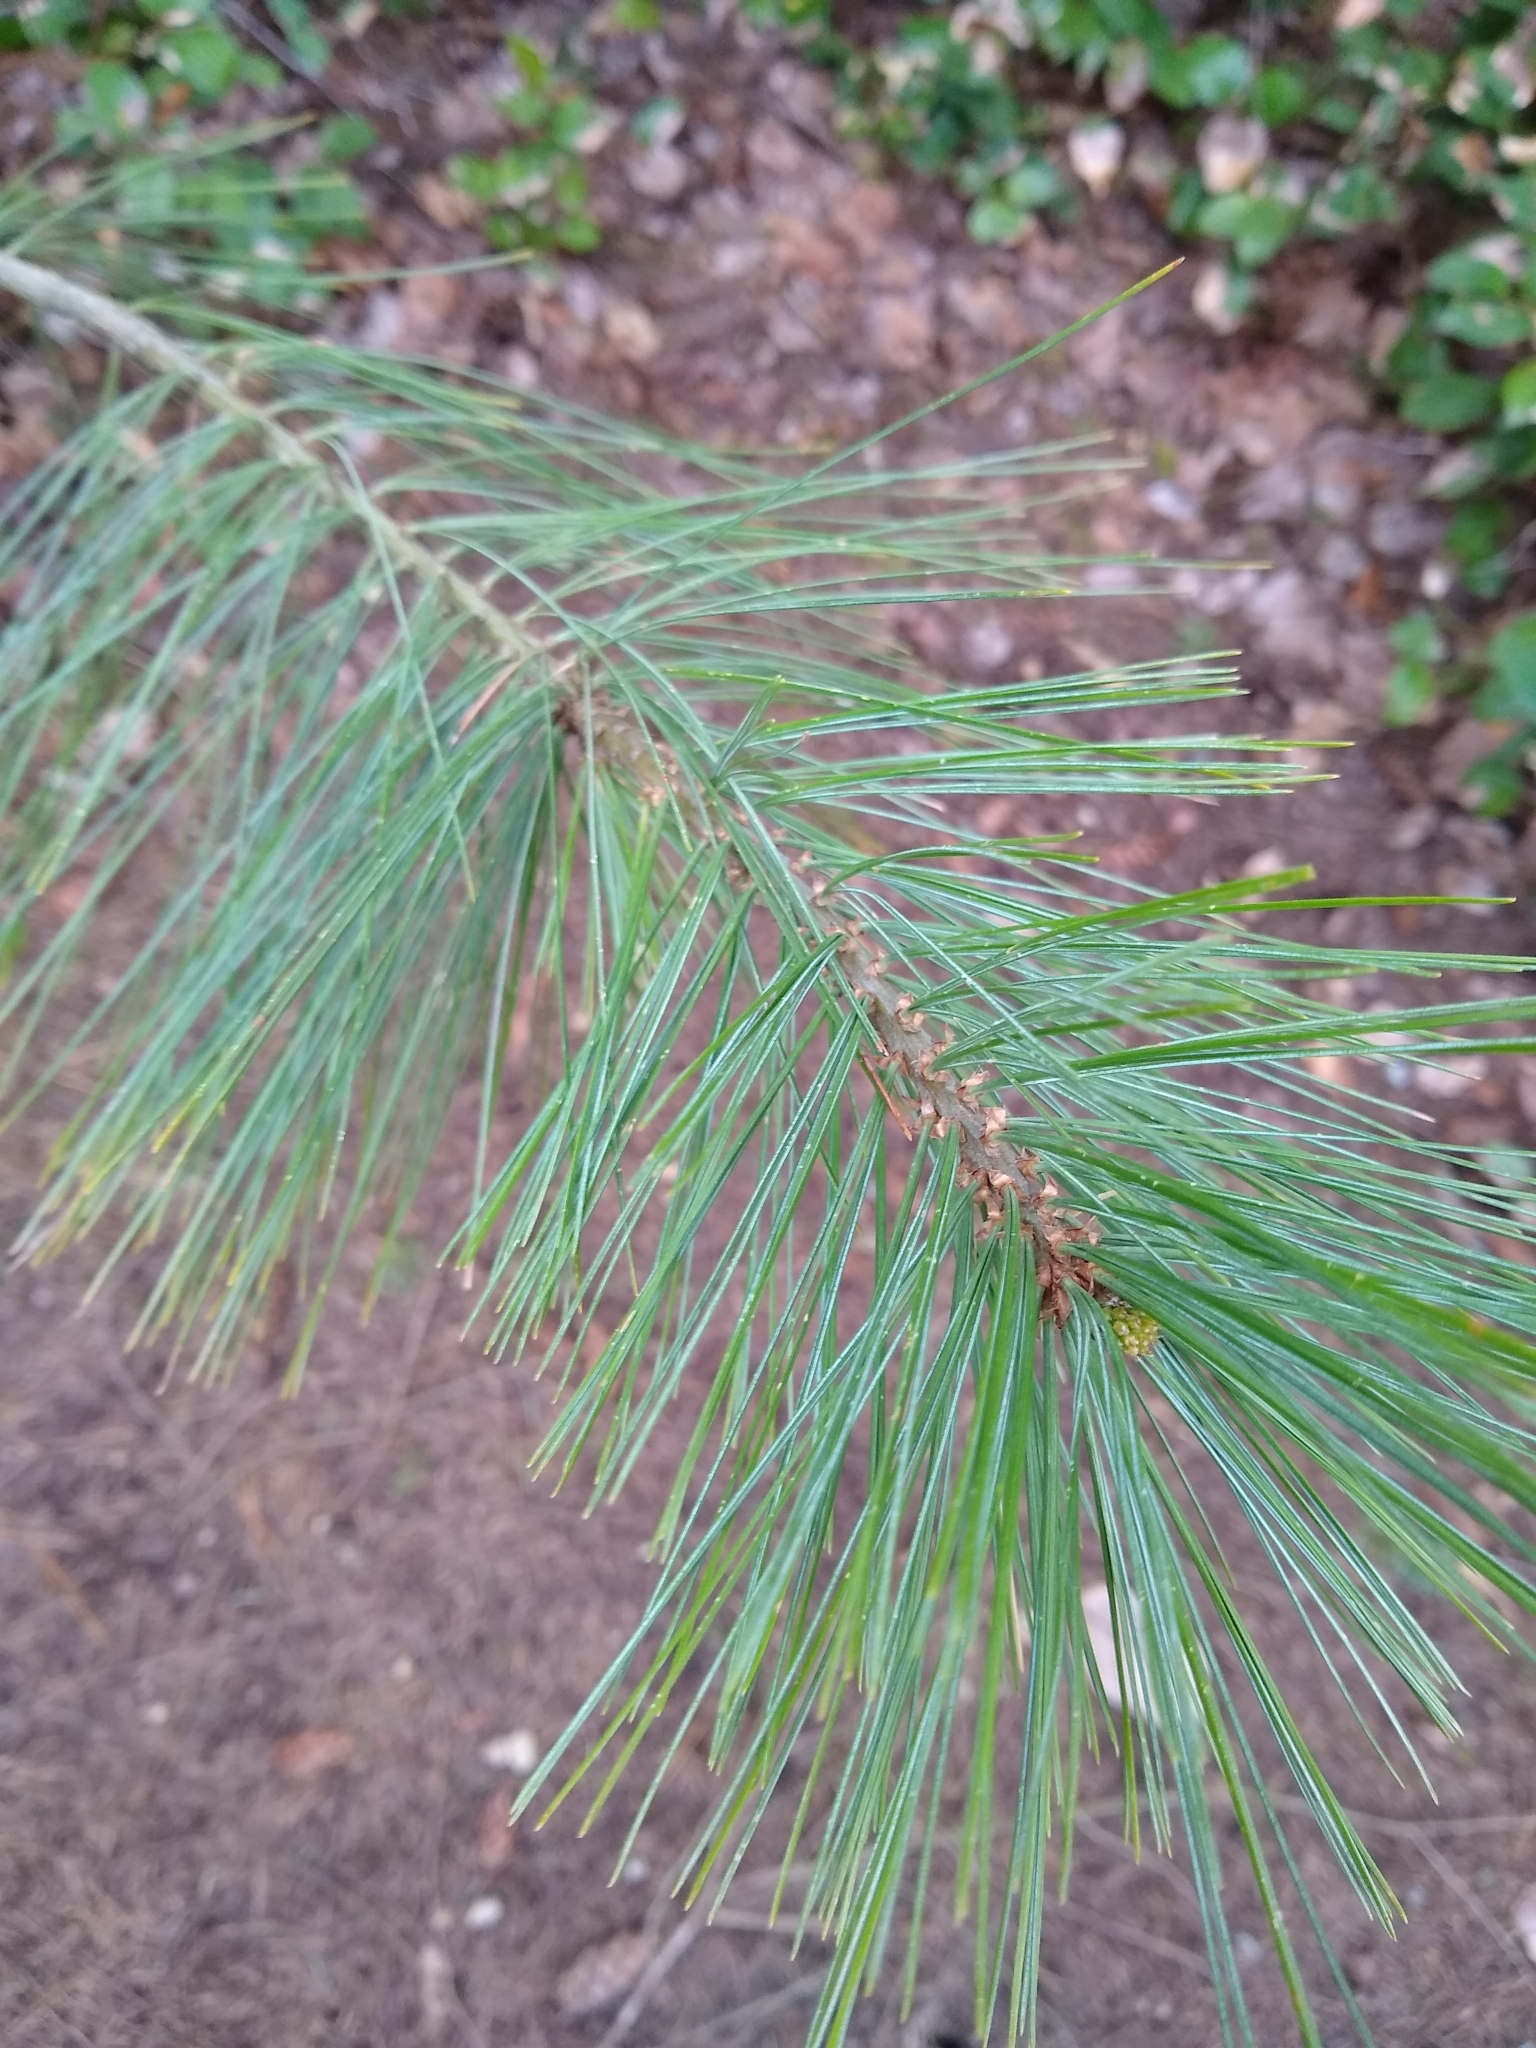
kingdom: Plantae
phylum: Tracheophyta
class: Pinopsida
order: Pinales
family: Pinaceae
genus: Pinus
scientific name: Pinus monticola
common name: Western white pine
